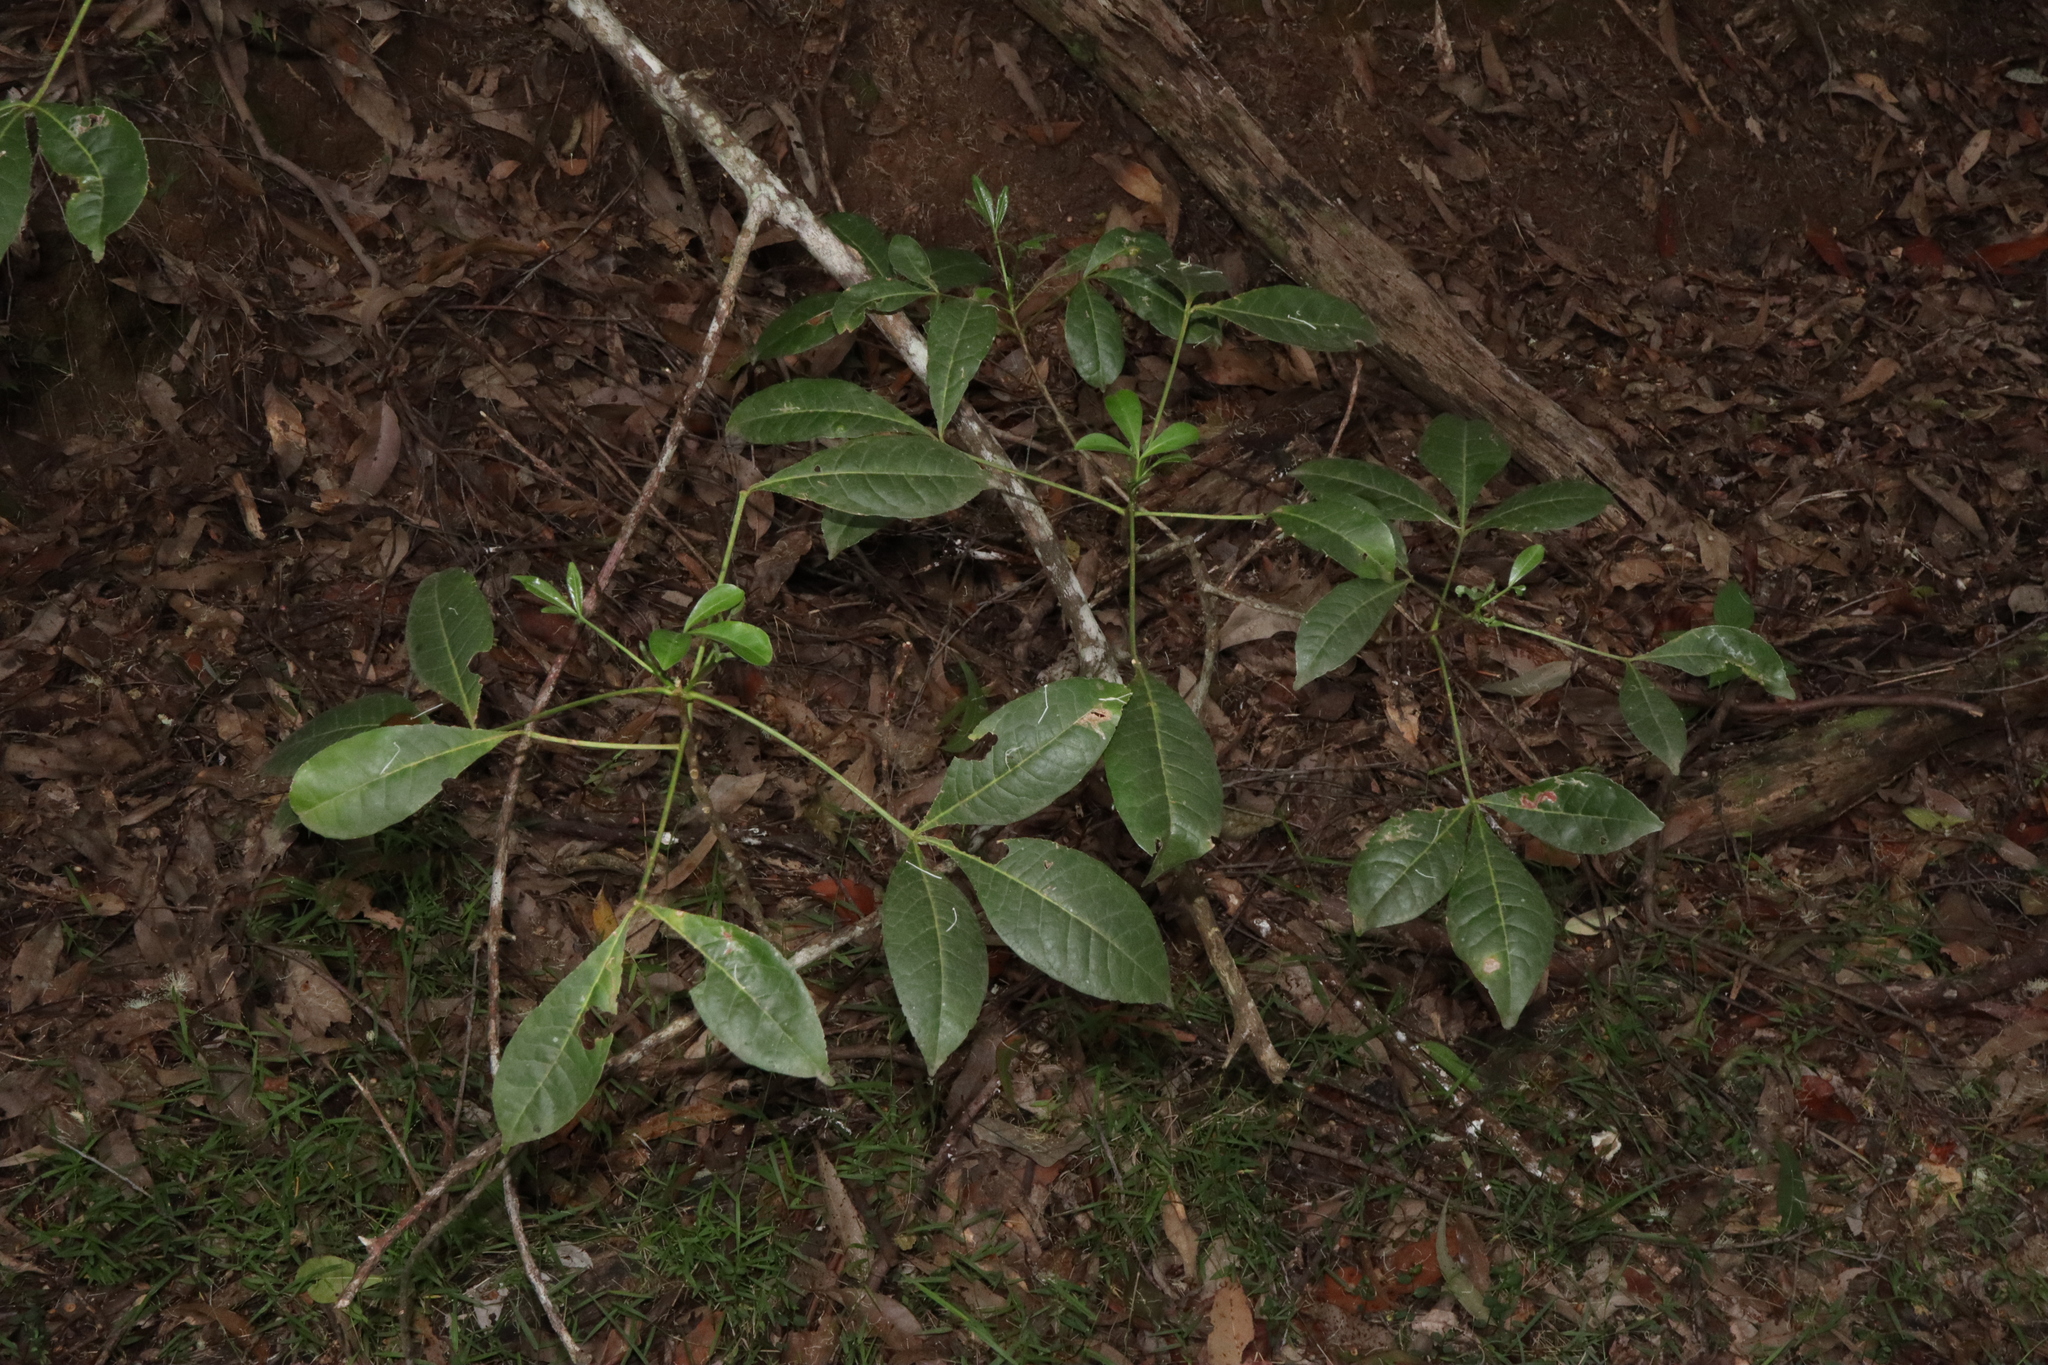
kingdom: Plantae
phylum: Tracheophyta
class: Magnoliopsida
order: Sapindales
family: Rutaceae
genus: Melicope
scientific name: Melicope micrococca
